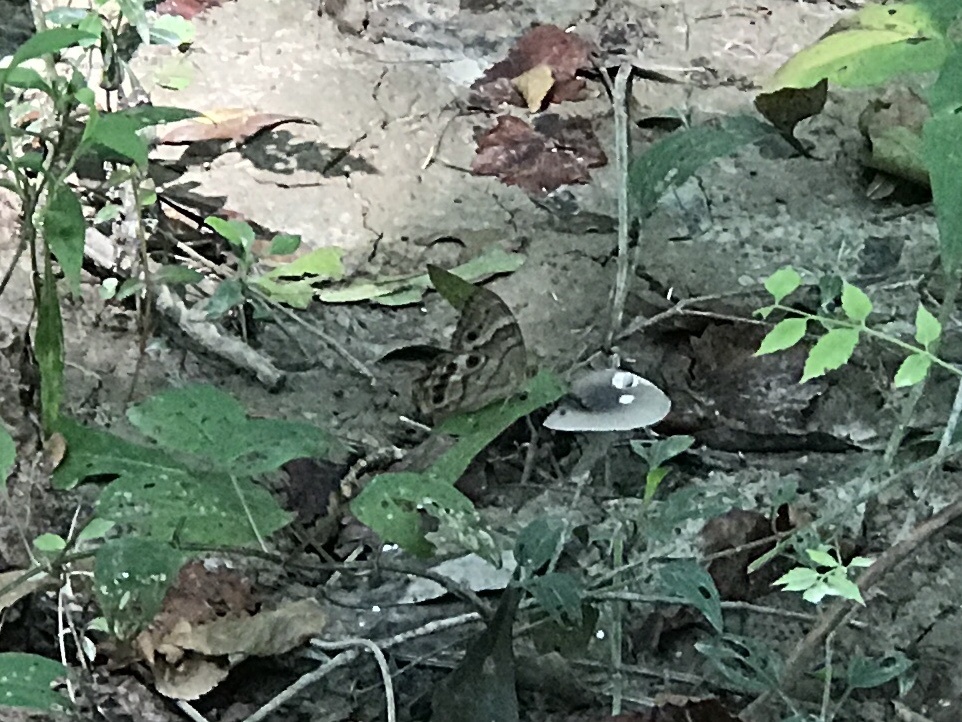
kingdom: Animalia
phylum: Arthropoda
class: Insecta
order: Lepidoptera
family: Nymphalidae
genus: Enodia
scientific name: Enodia portlandia
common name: Southern pearly-eye
